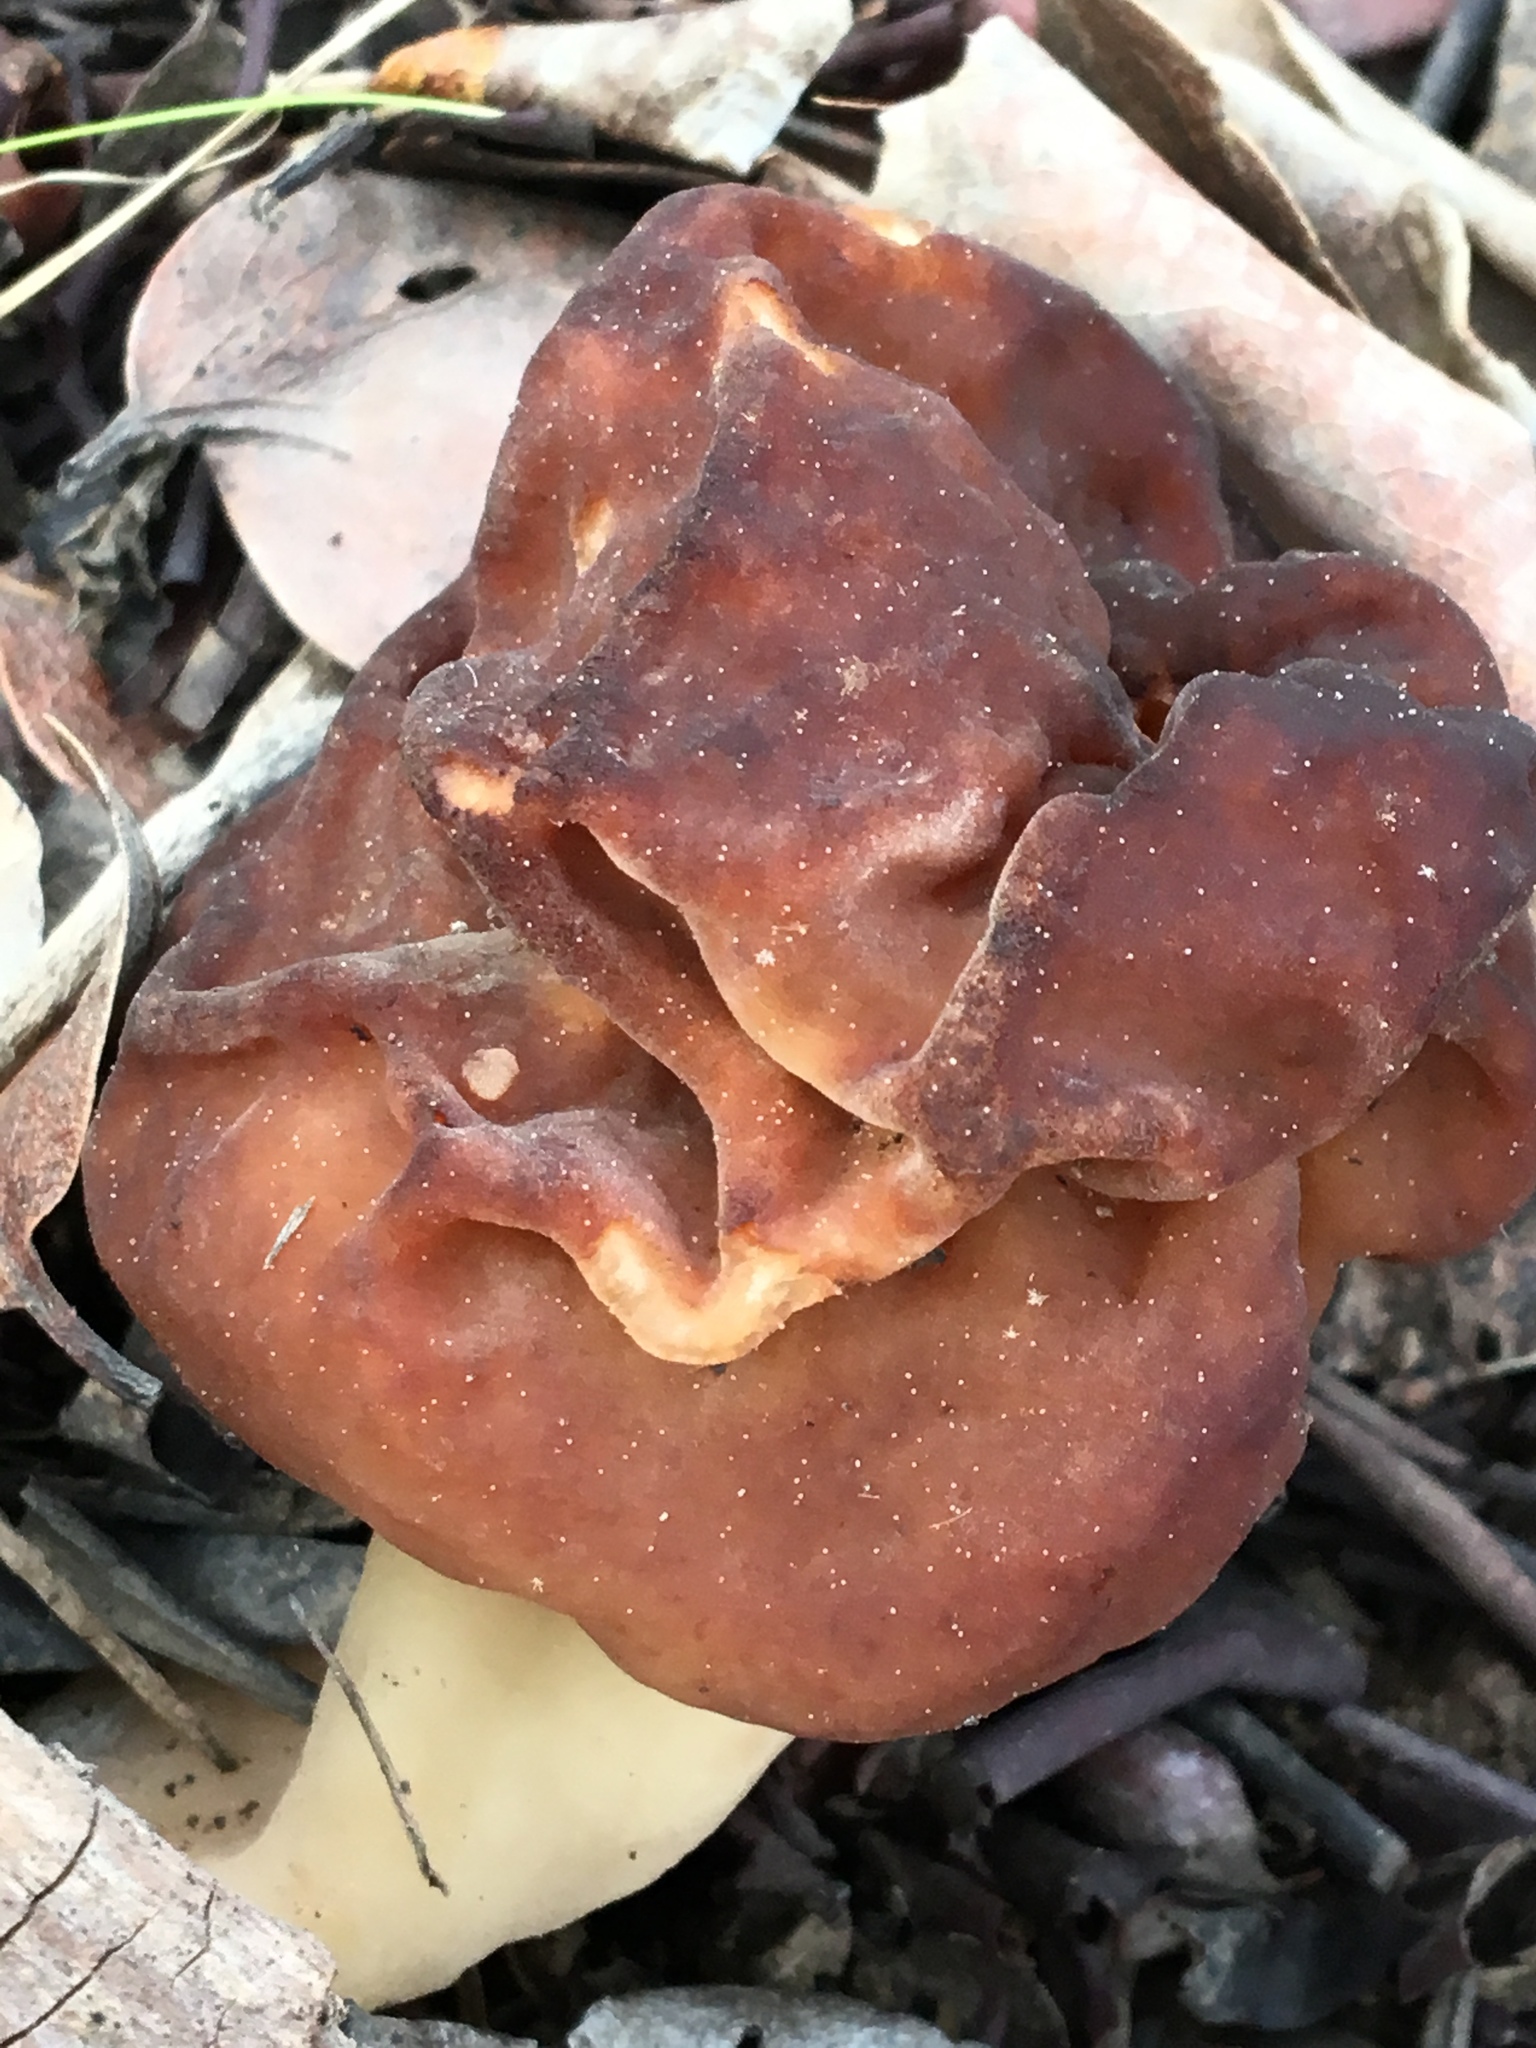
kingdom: Fungi
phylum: Ascomycota
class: Pezizomycetes
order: Pezizales
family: Discinaceae
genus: Gyromitra
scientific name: Gyromitra esculenta
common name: False morel
